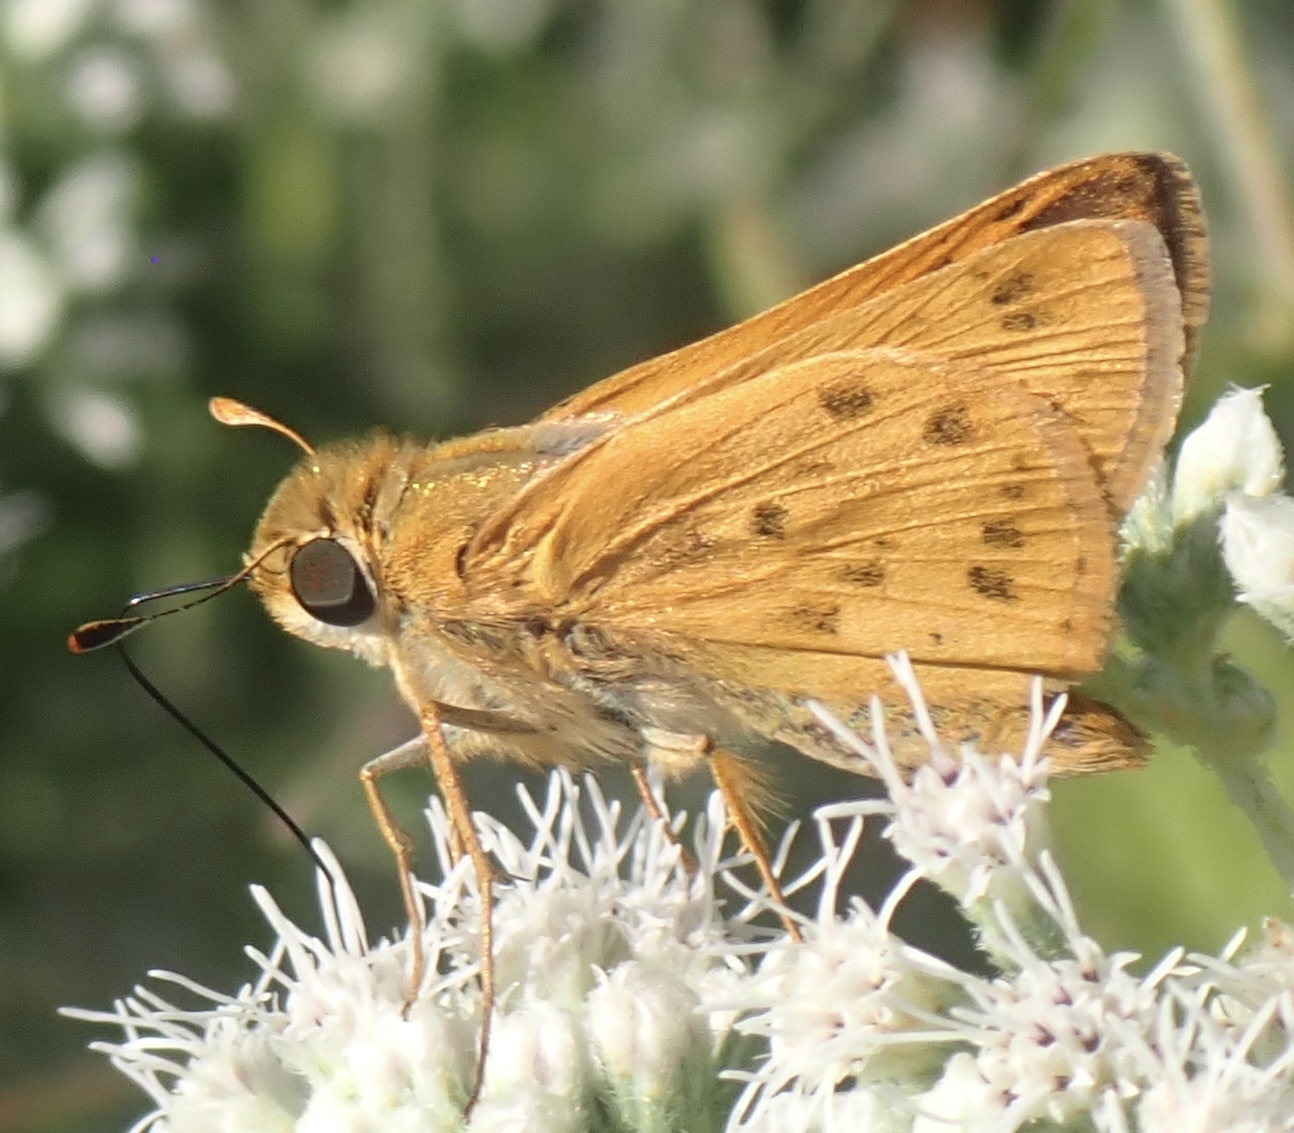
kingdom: Animalia
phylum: Arthropoda
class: Insecta
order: Lepidoptera
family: Hesperiidae
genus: Hylephila
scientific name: Hylephila phyleus
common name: Fiery skipper
